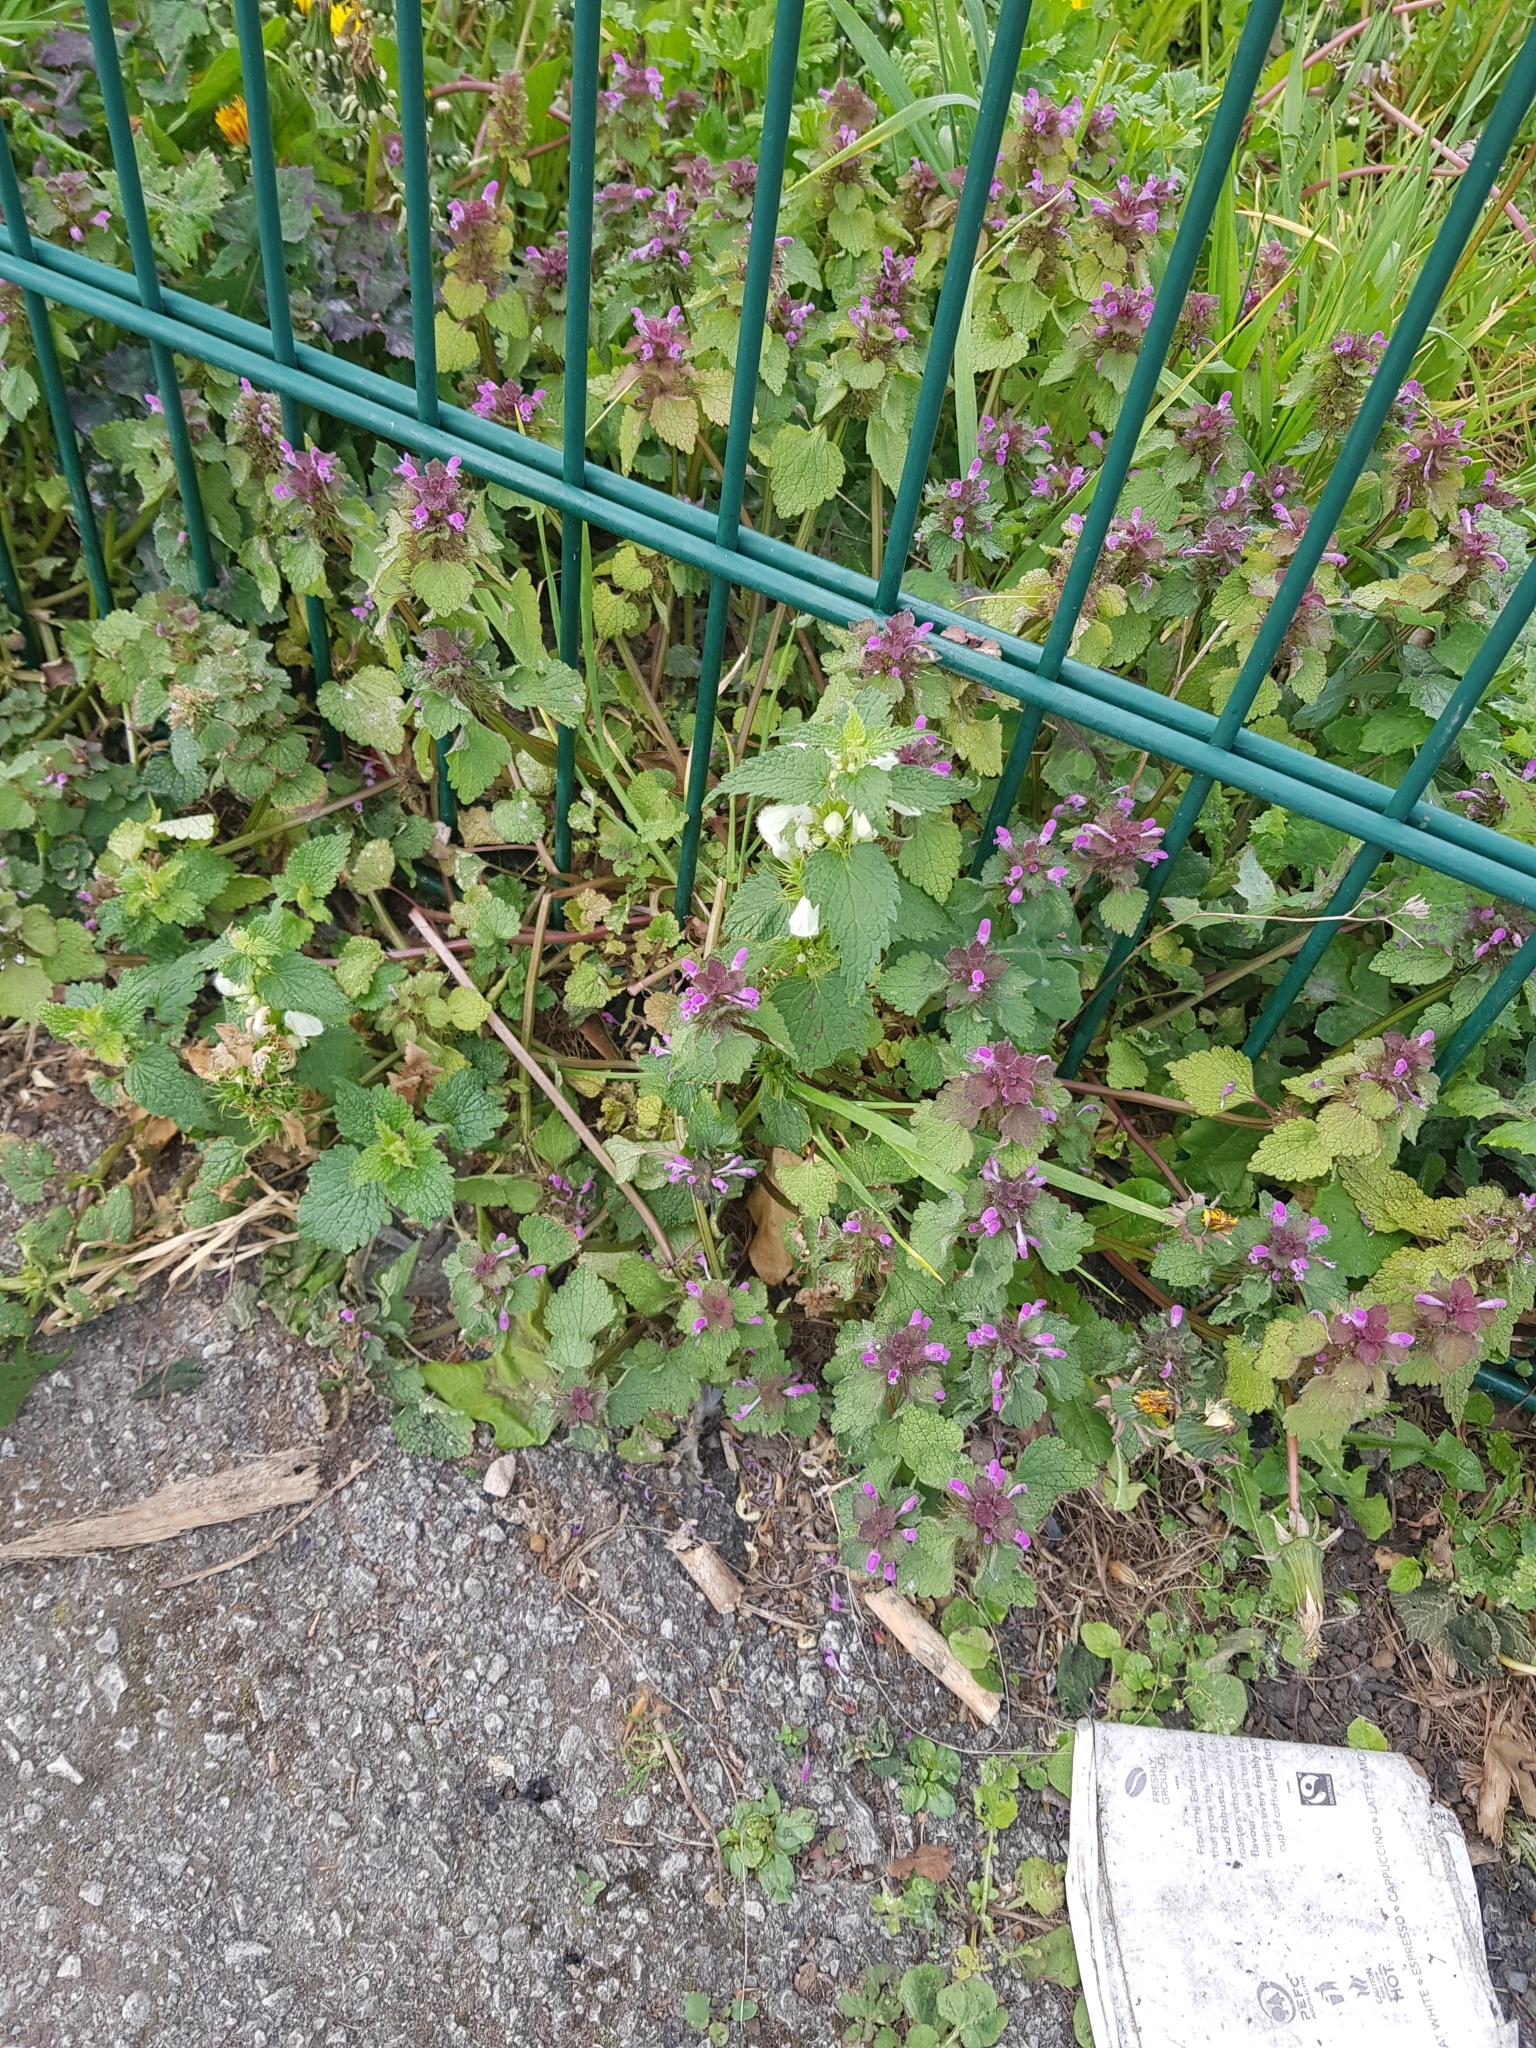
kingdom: Plantae
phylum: Tracheophyta
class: Magnoliopsida
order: Lamiales
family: Lamiaceae
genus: Lamium
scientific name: Lamium purpureum
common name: Red dead-nettle
